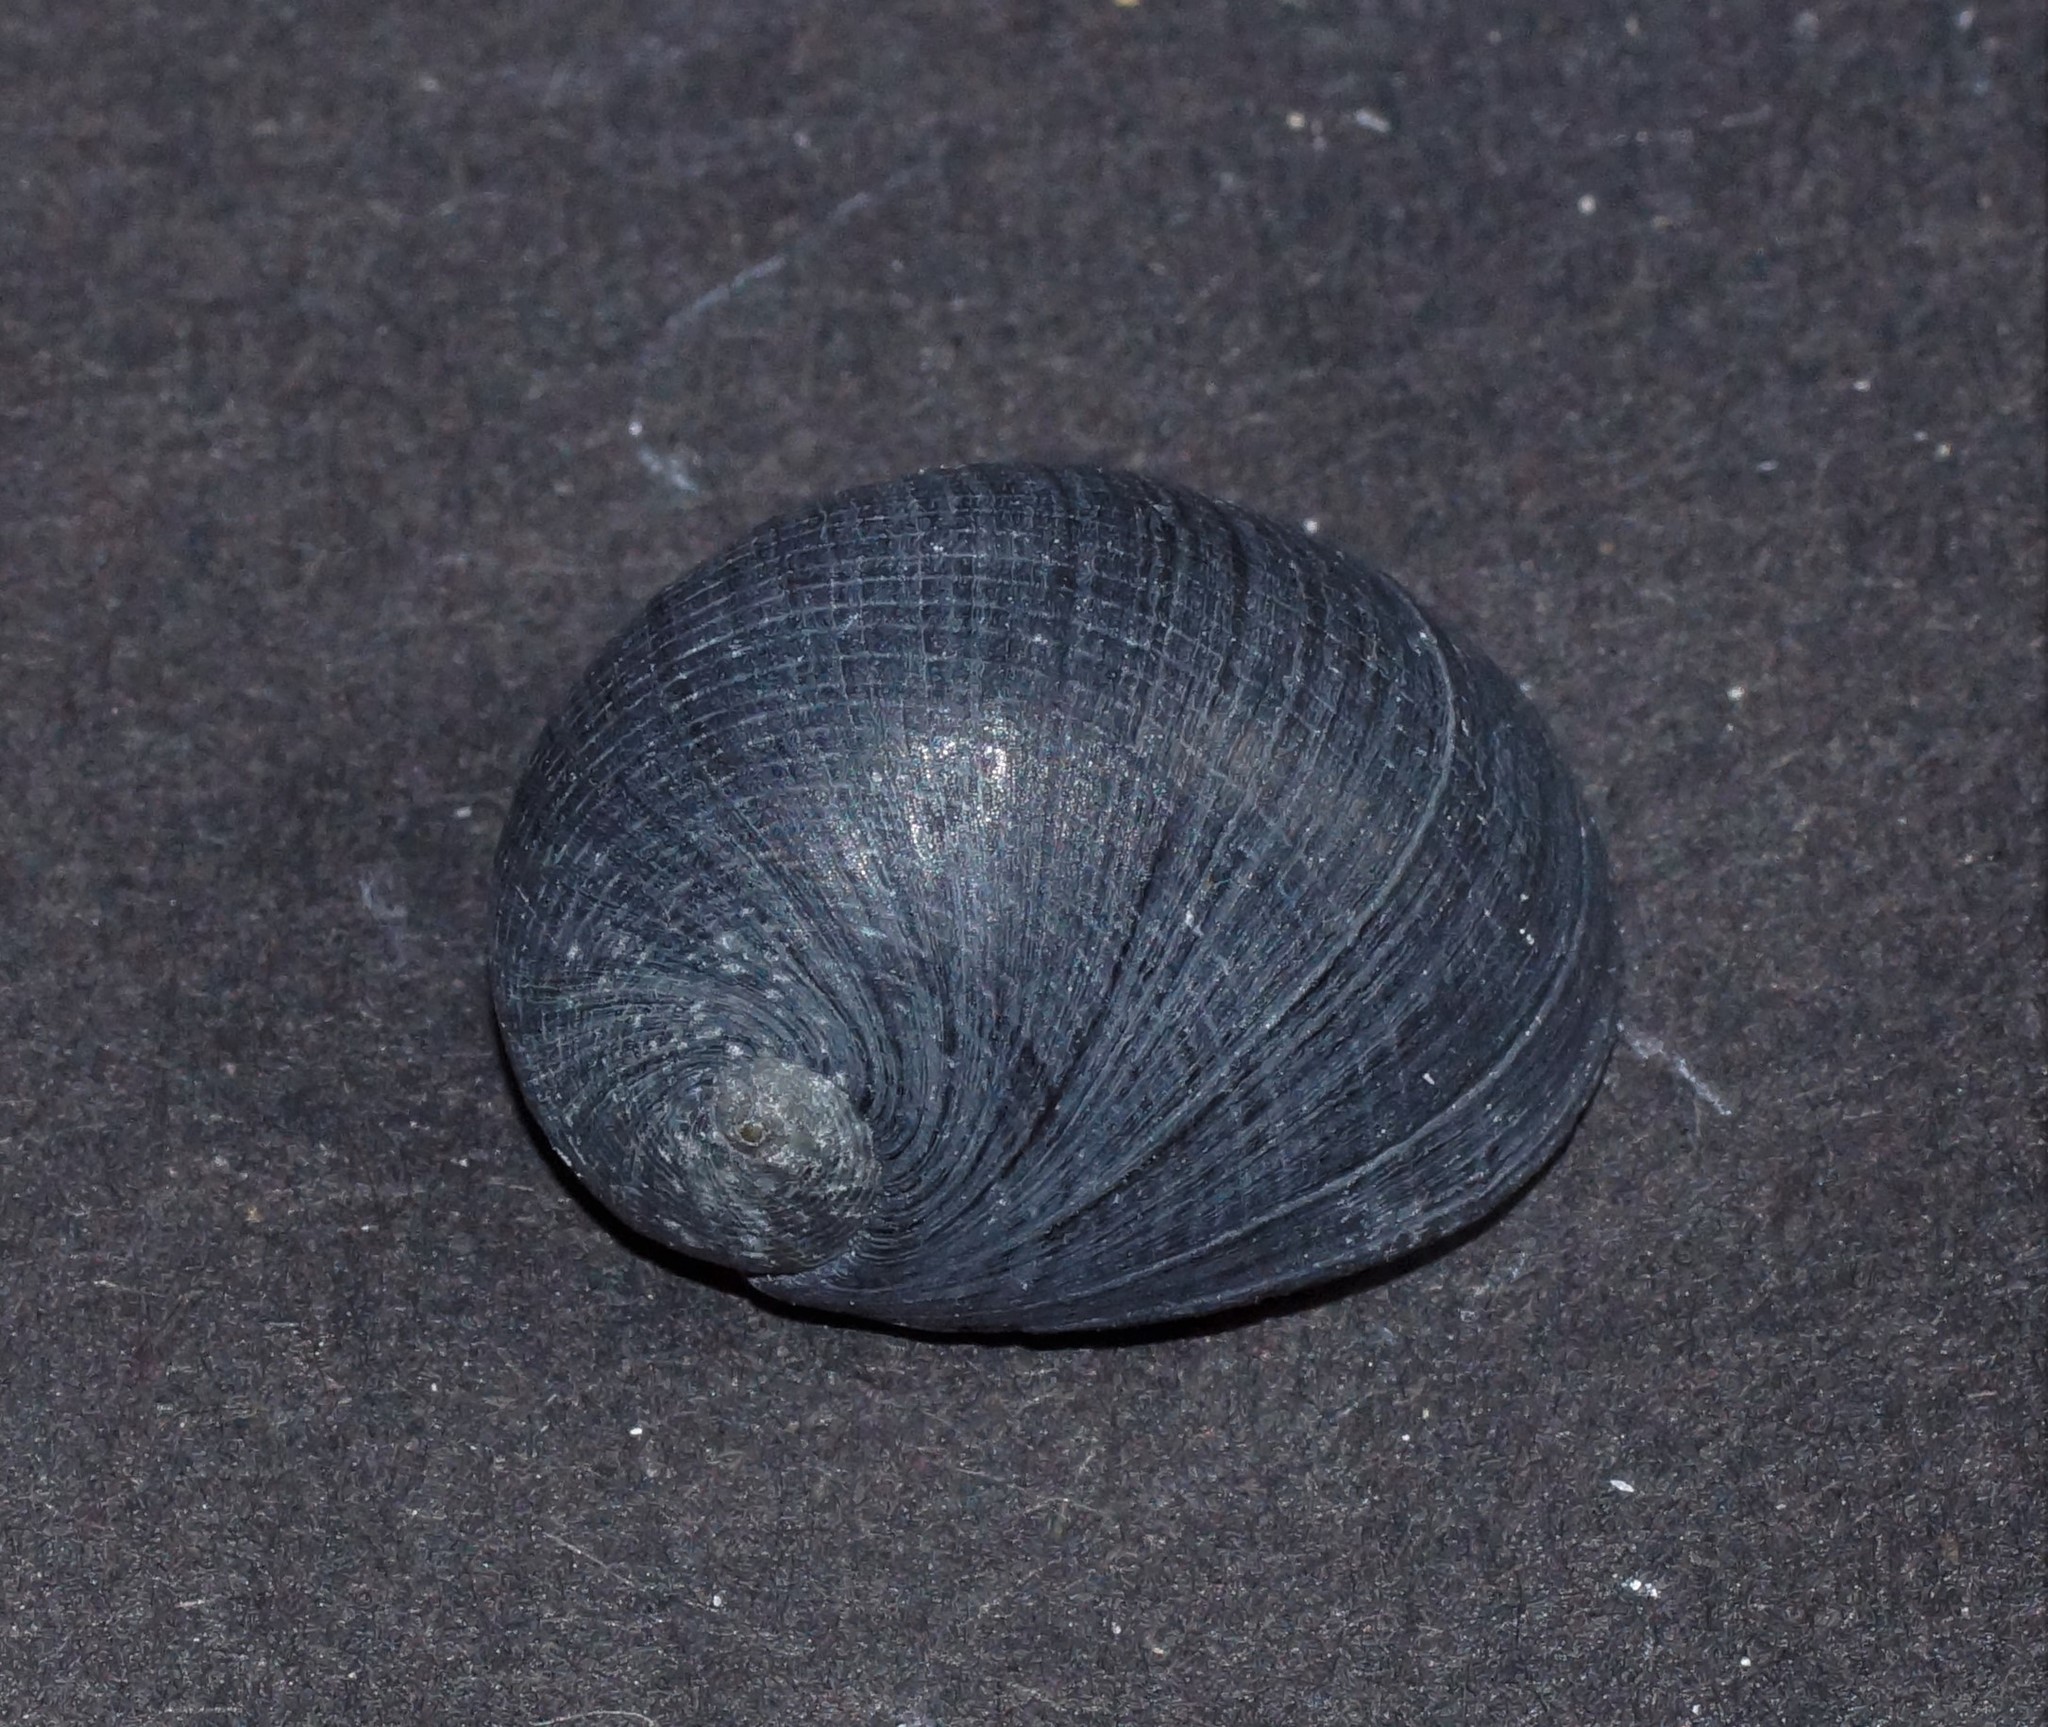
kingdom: Animalia
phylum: Mollusca
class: Gastropoda
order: Cycloneritida
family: Neritidae
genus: Nerita
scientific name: Nerita atramentosa
